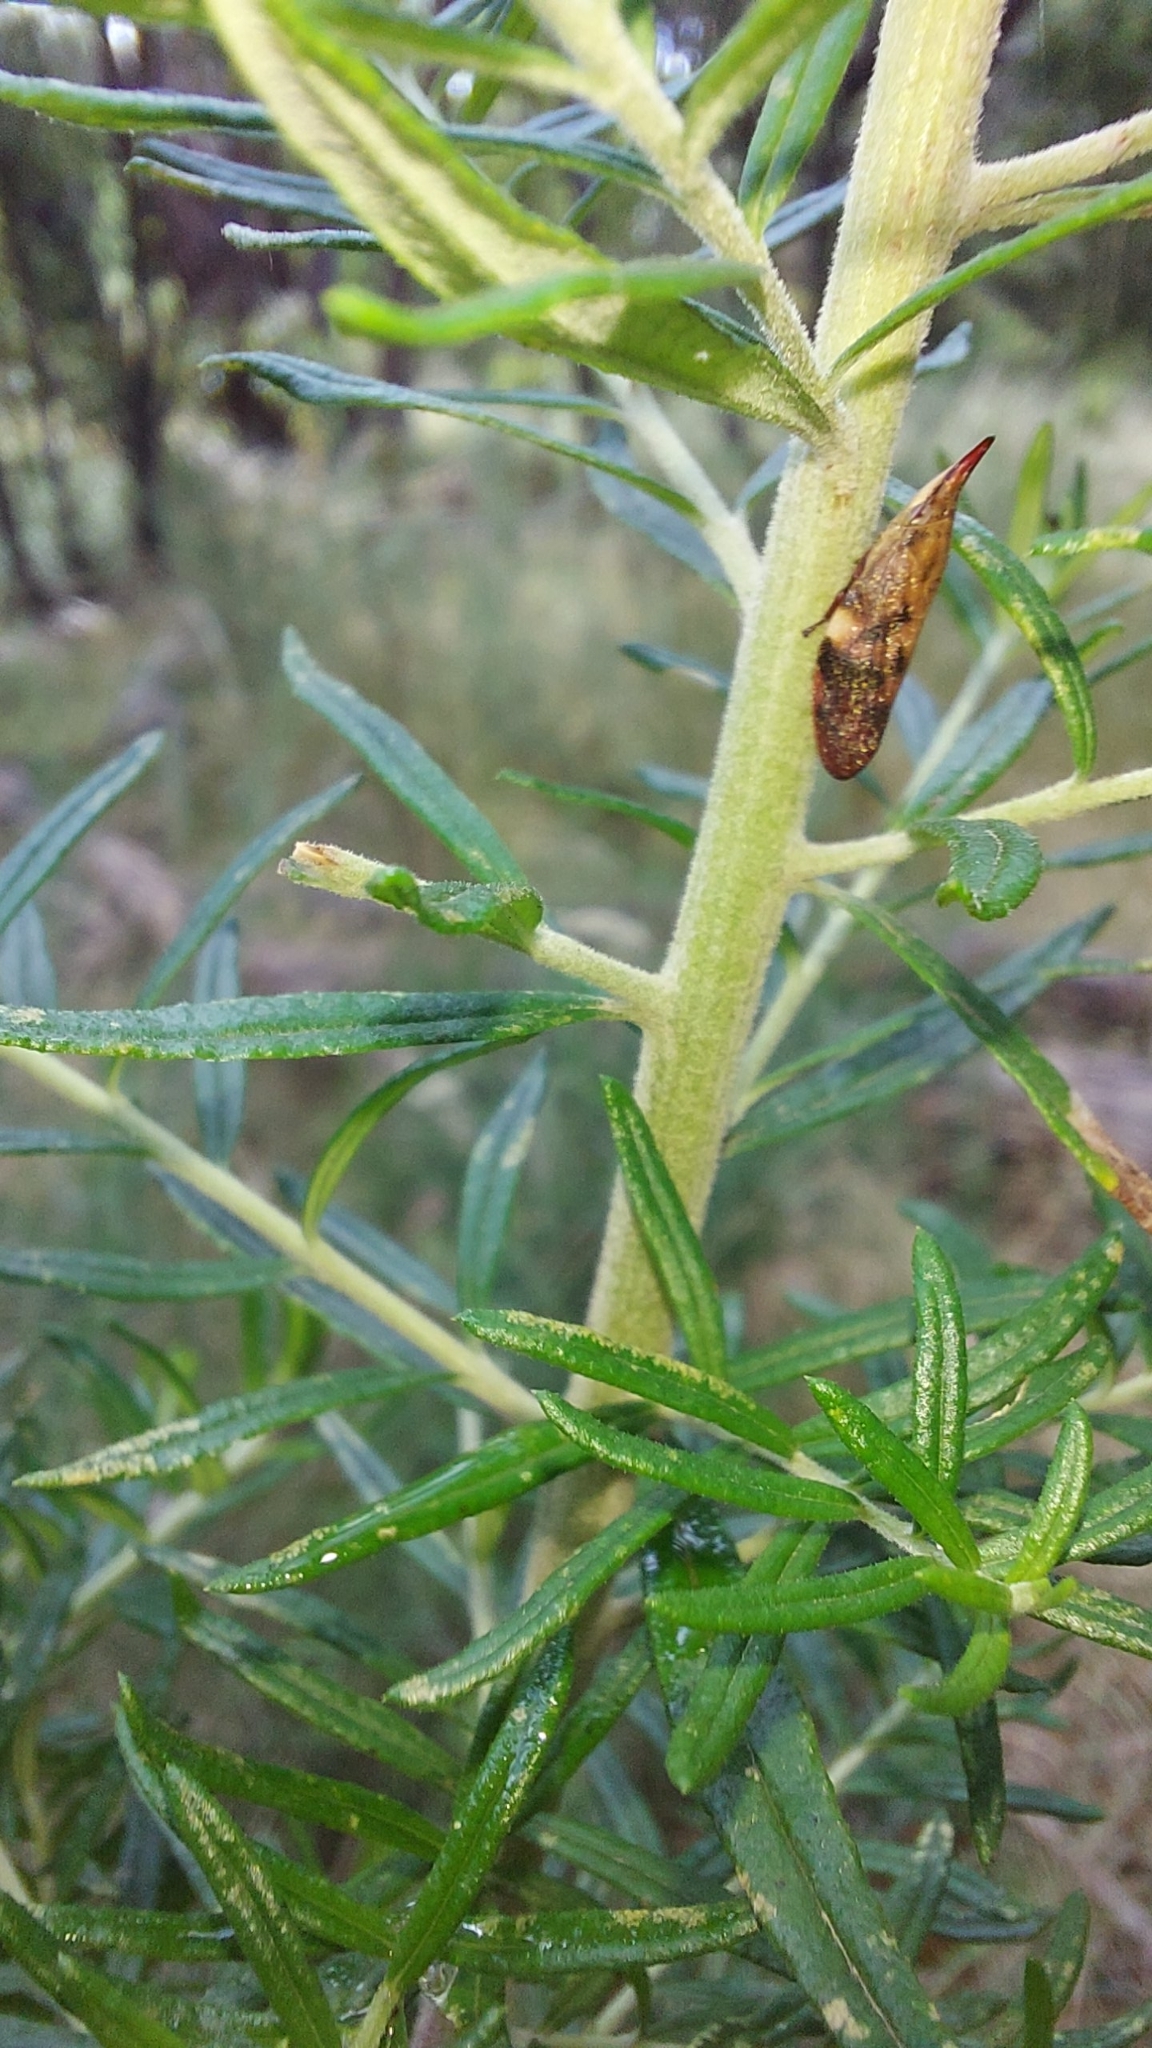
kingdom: Animalia
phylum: Arthropoda
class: Insecta
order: Hemiptera
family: Aphrophoridae
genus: Philagra
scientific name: Philagra parva
